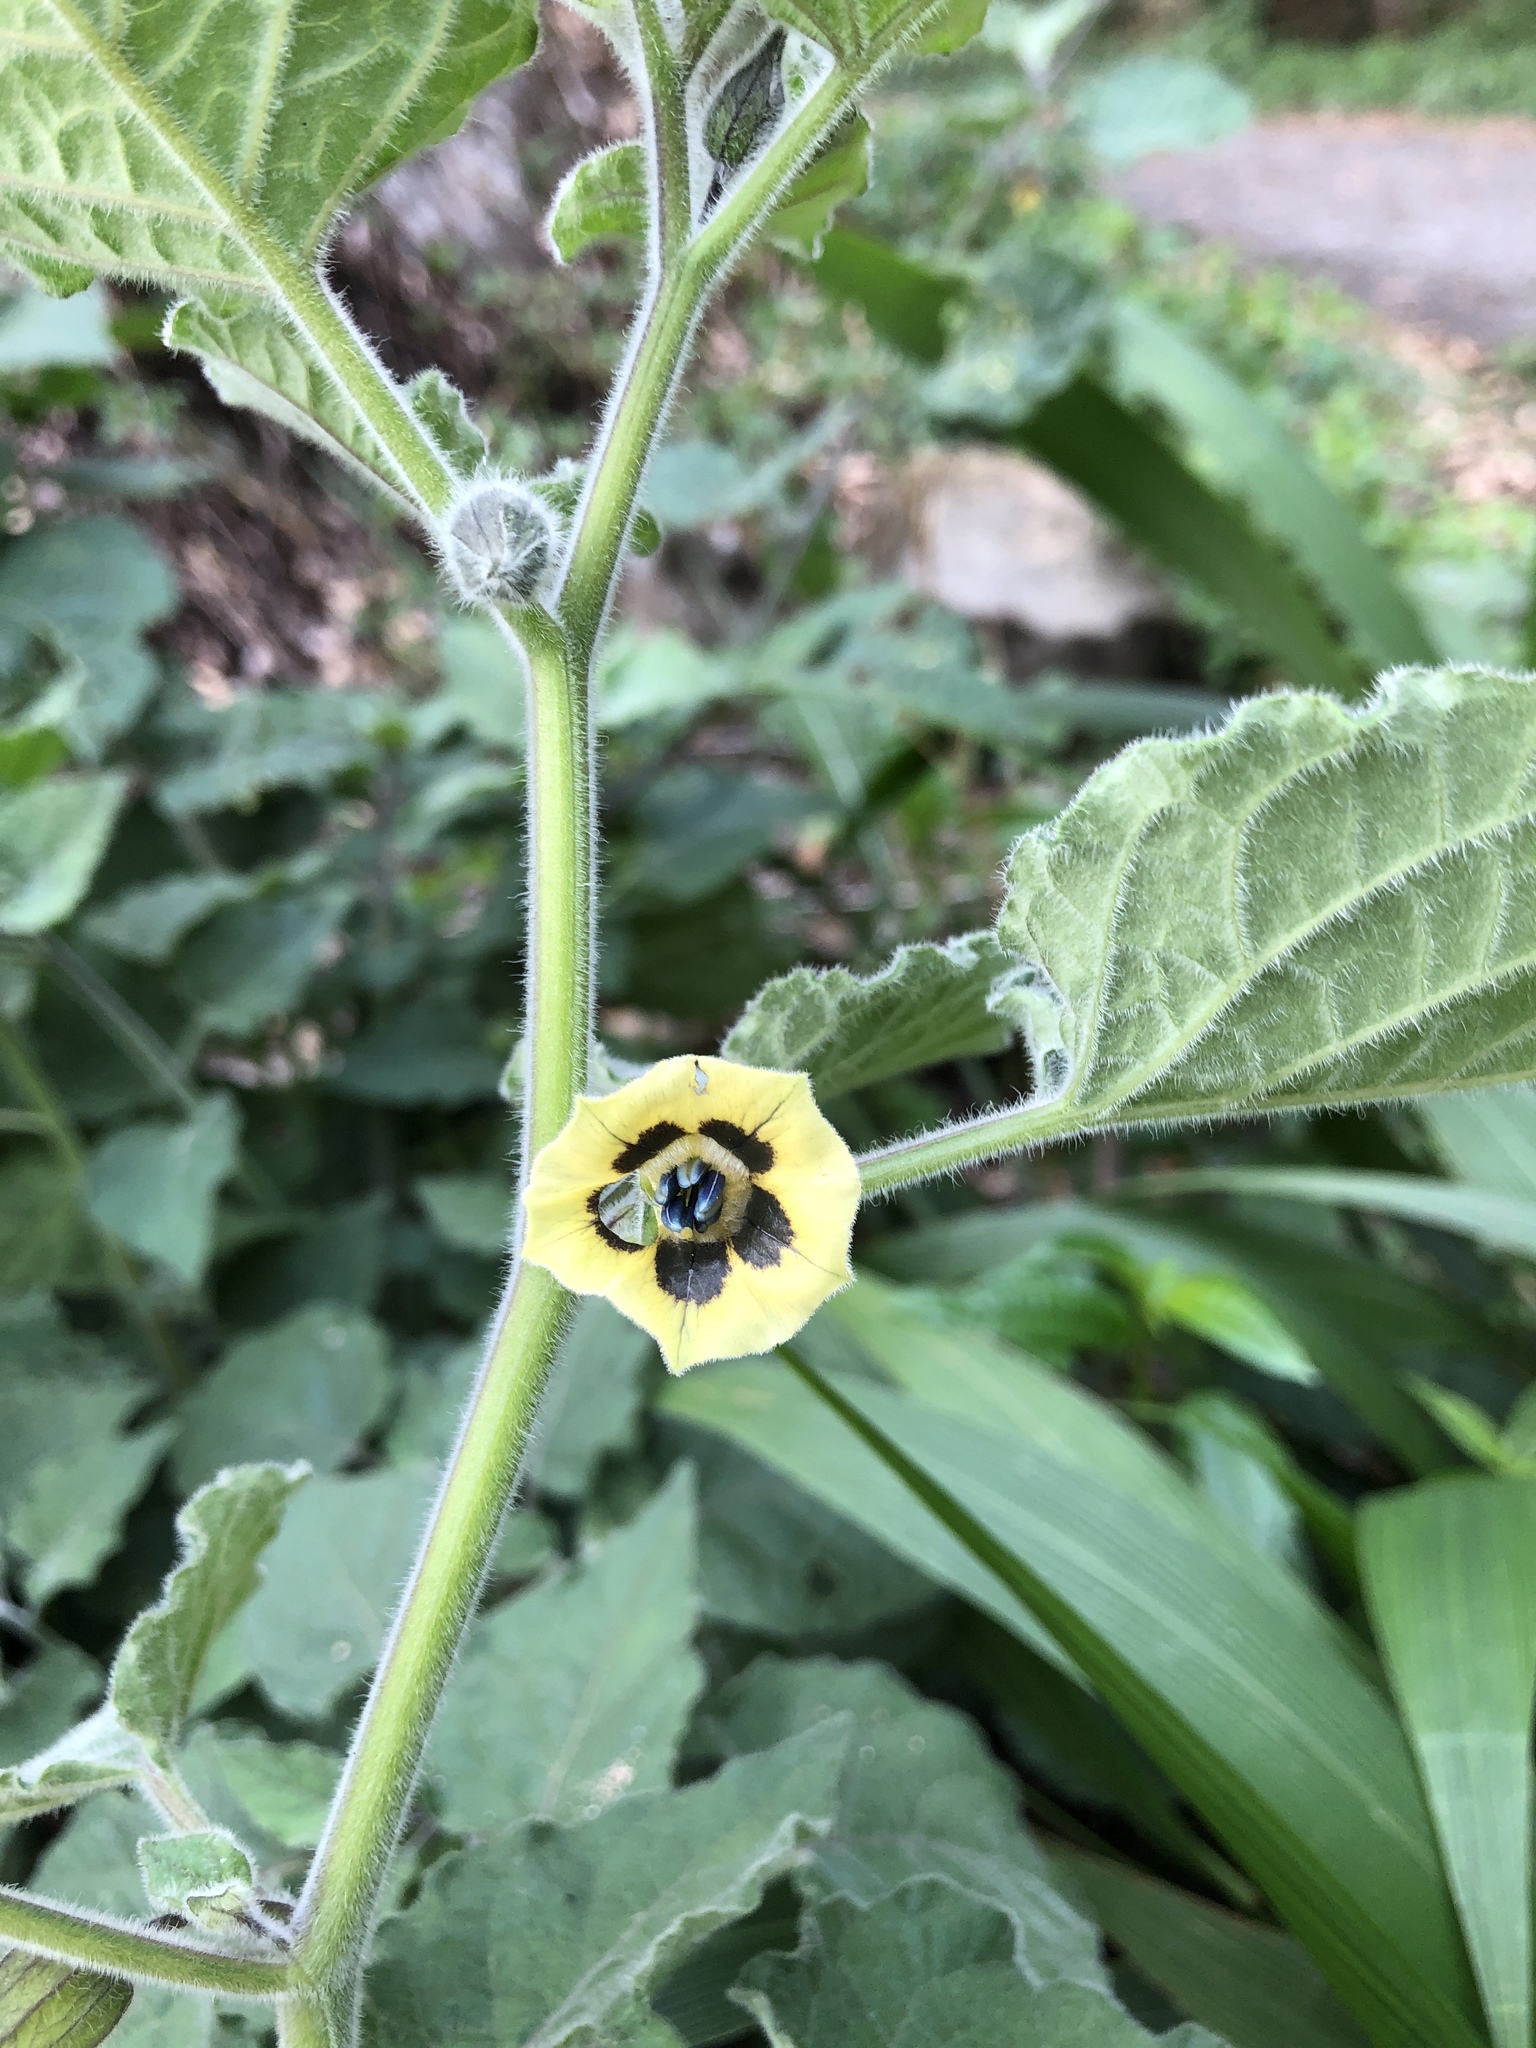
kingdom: Plantae
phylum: Tracheophyta
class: Magnoliopsida
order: Solanales
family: Solanaceae
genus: Physalis
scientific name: Physalis peruviana
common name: Cape-gooseberry
